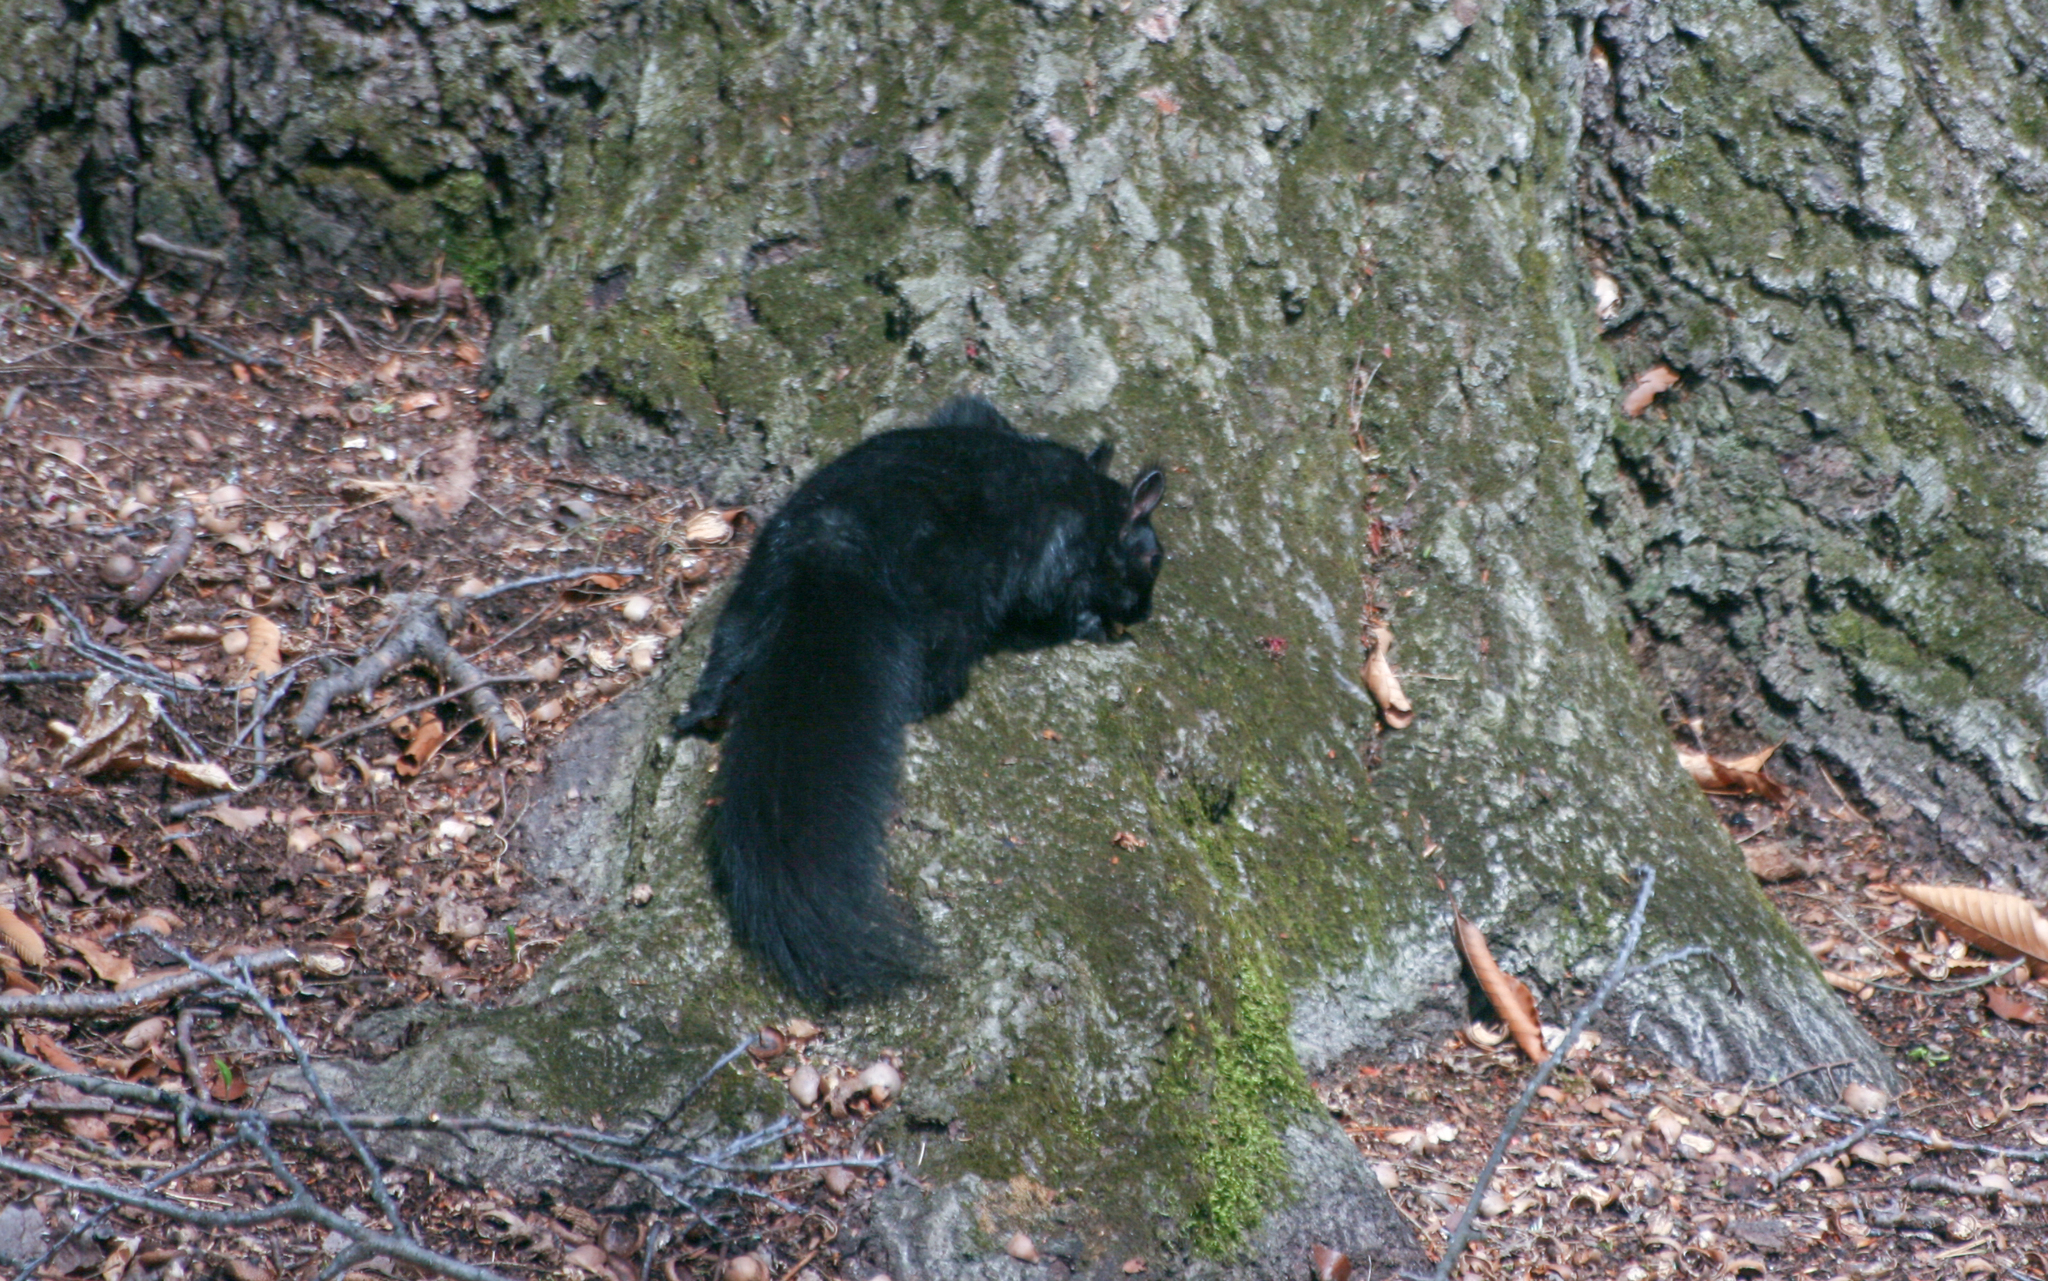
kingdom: Animalia
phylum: Chordata
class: Mammalia
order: Rodentia
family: Sciuridae
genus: Sciurus
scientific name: Sciurus carolinensis
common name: Eastern gray squirrel
